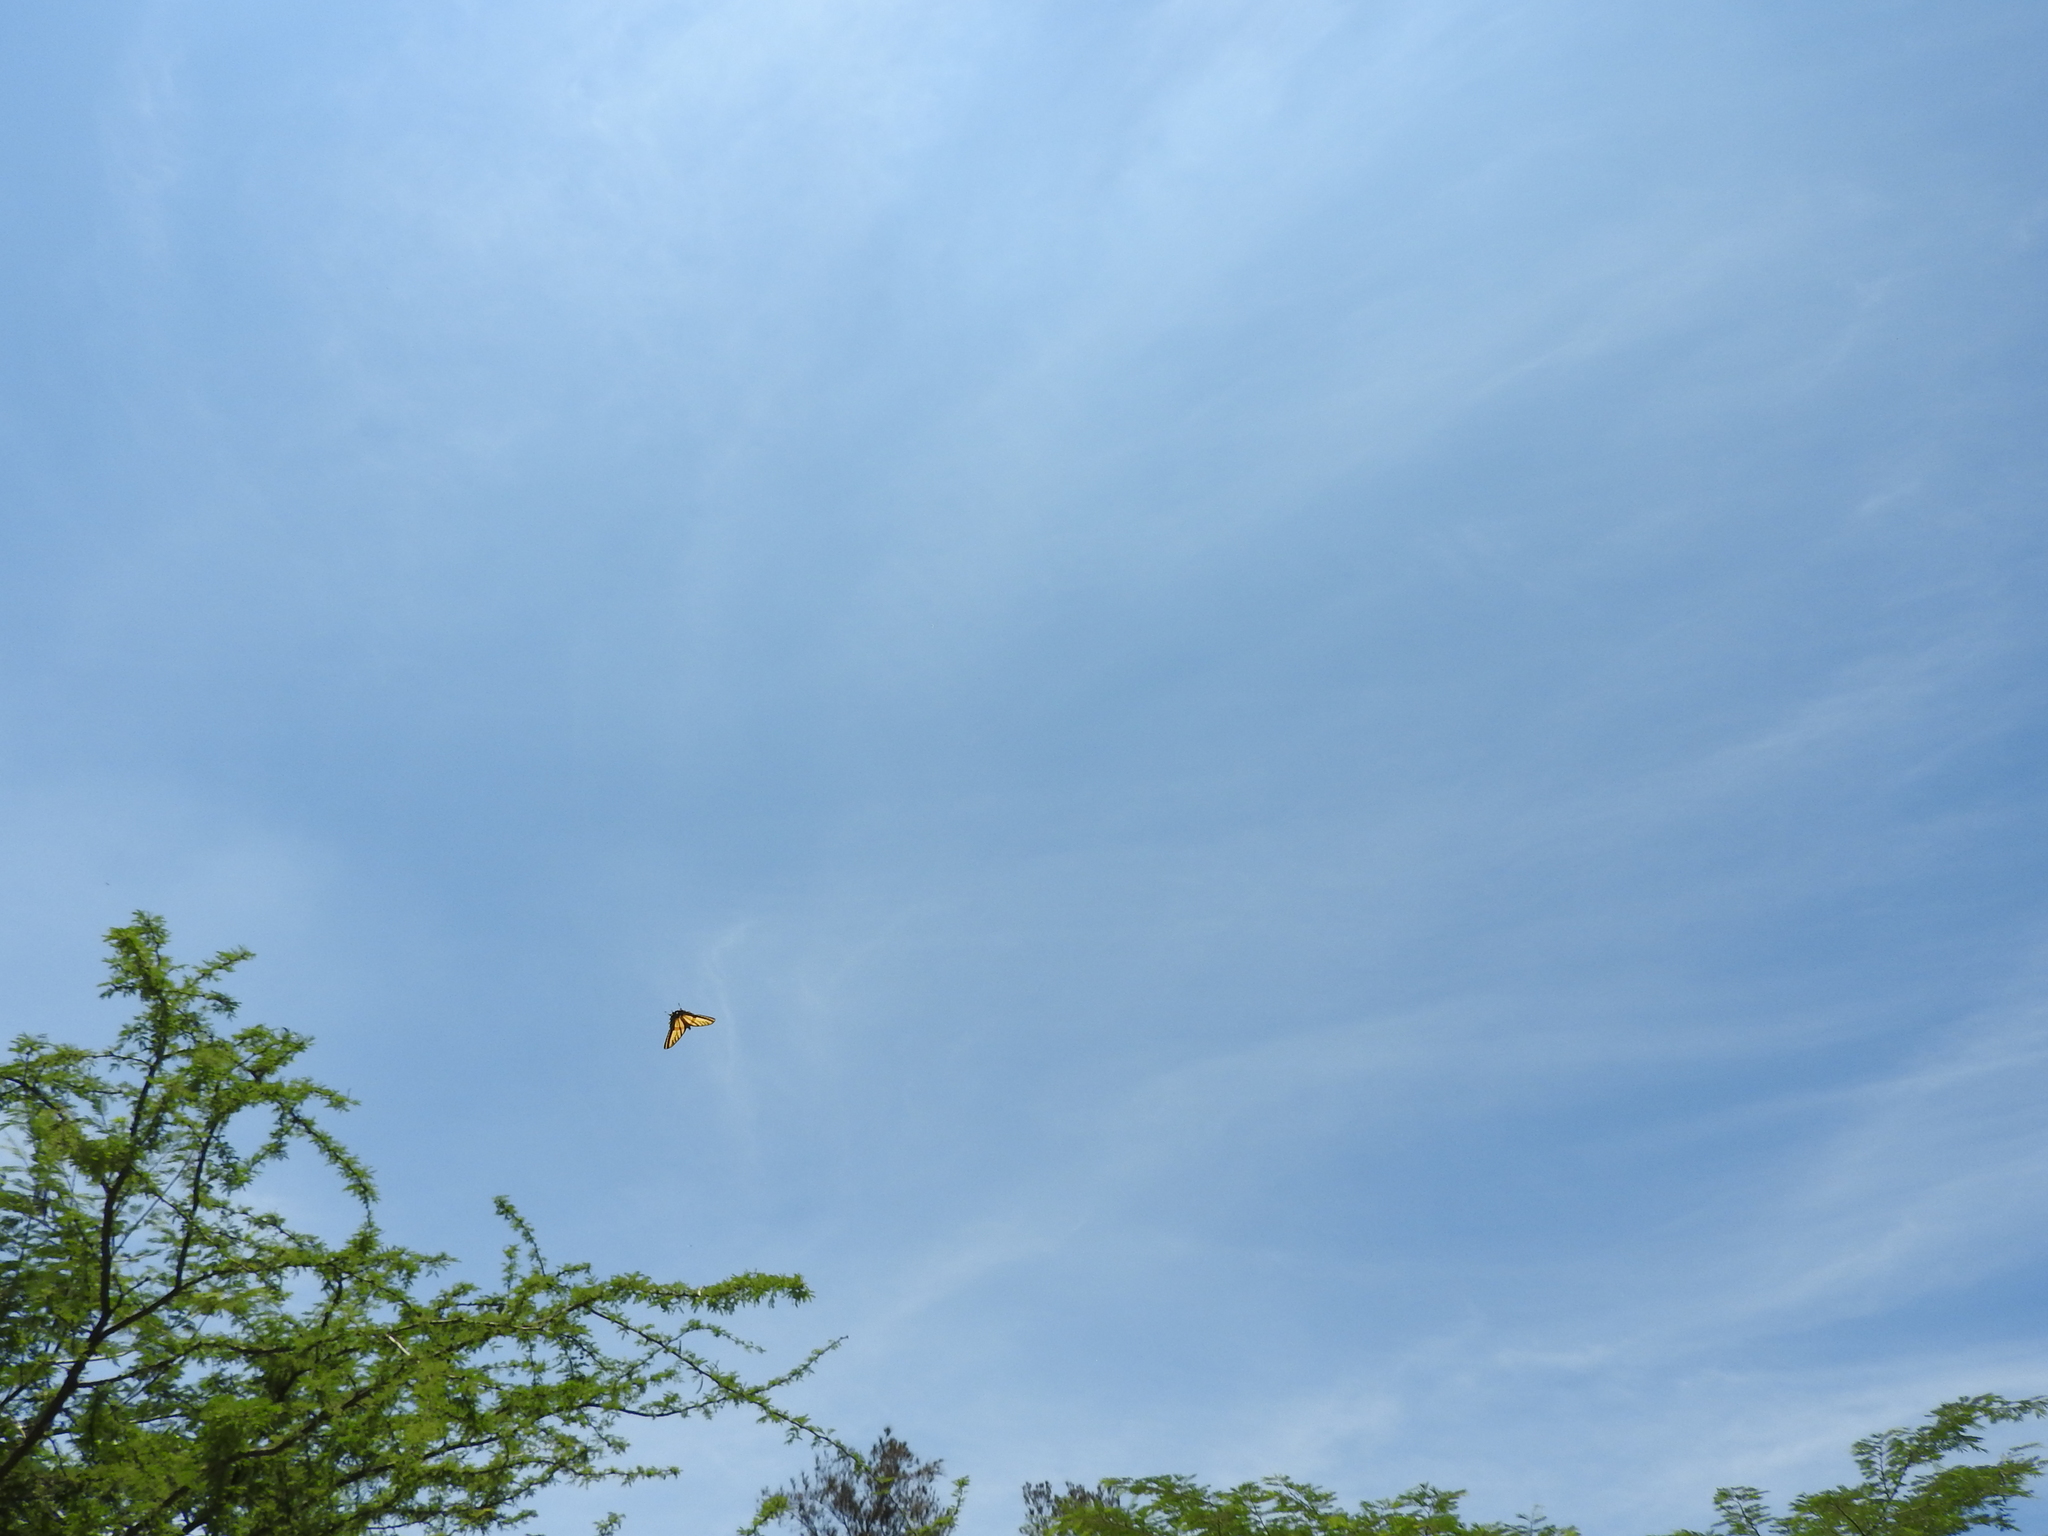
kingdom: Animalia
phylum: Arthropoda
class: Insecta
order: Lepidoptera
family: Papilionidae
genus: Papilio
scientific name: Papilio multicaudata
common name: Two-tailed tiger swallowtail
